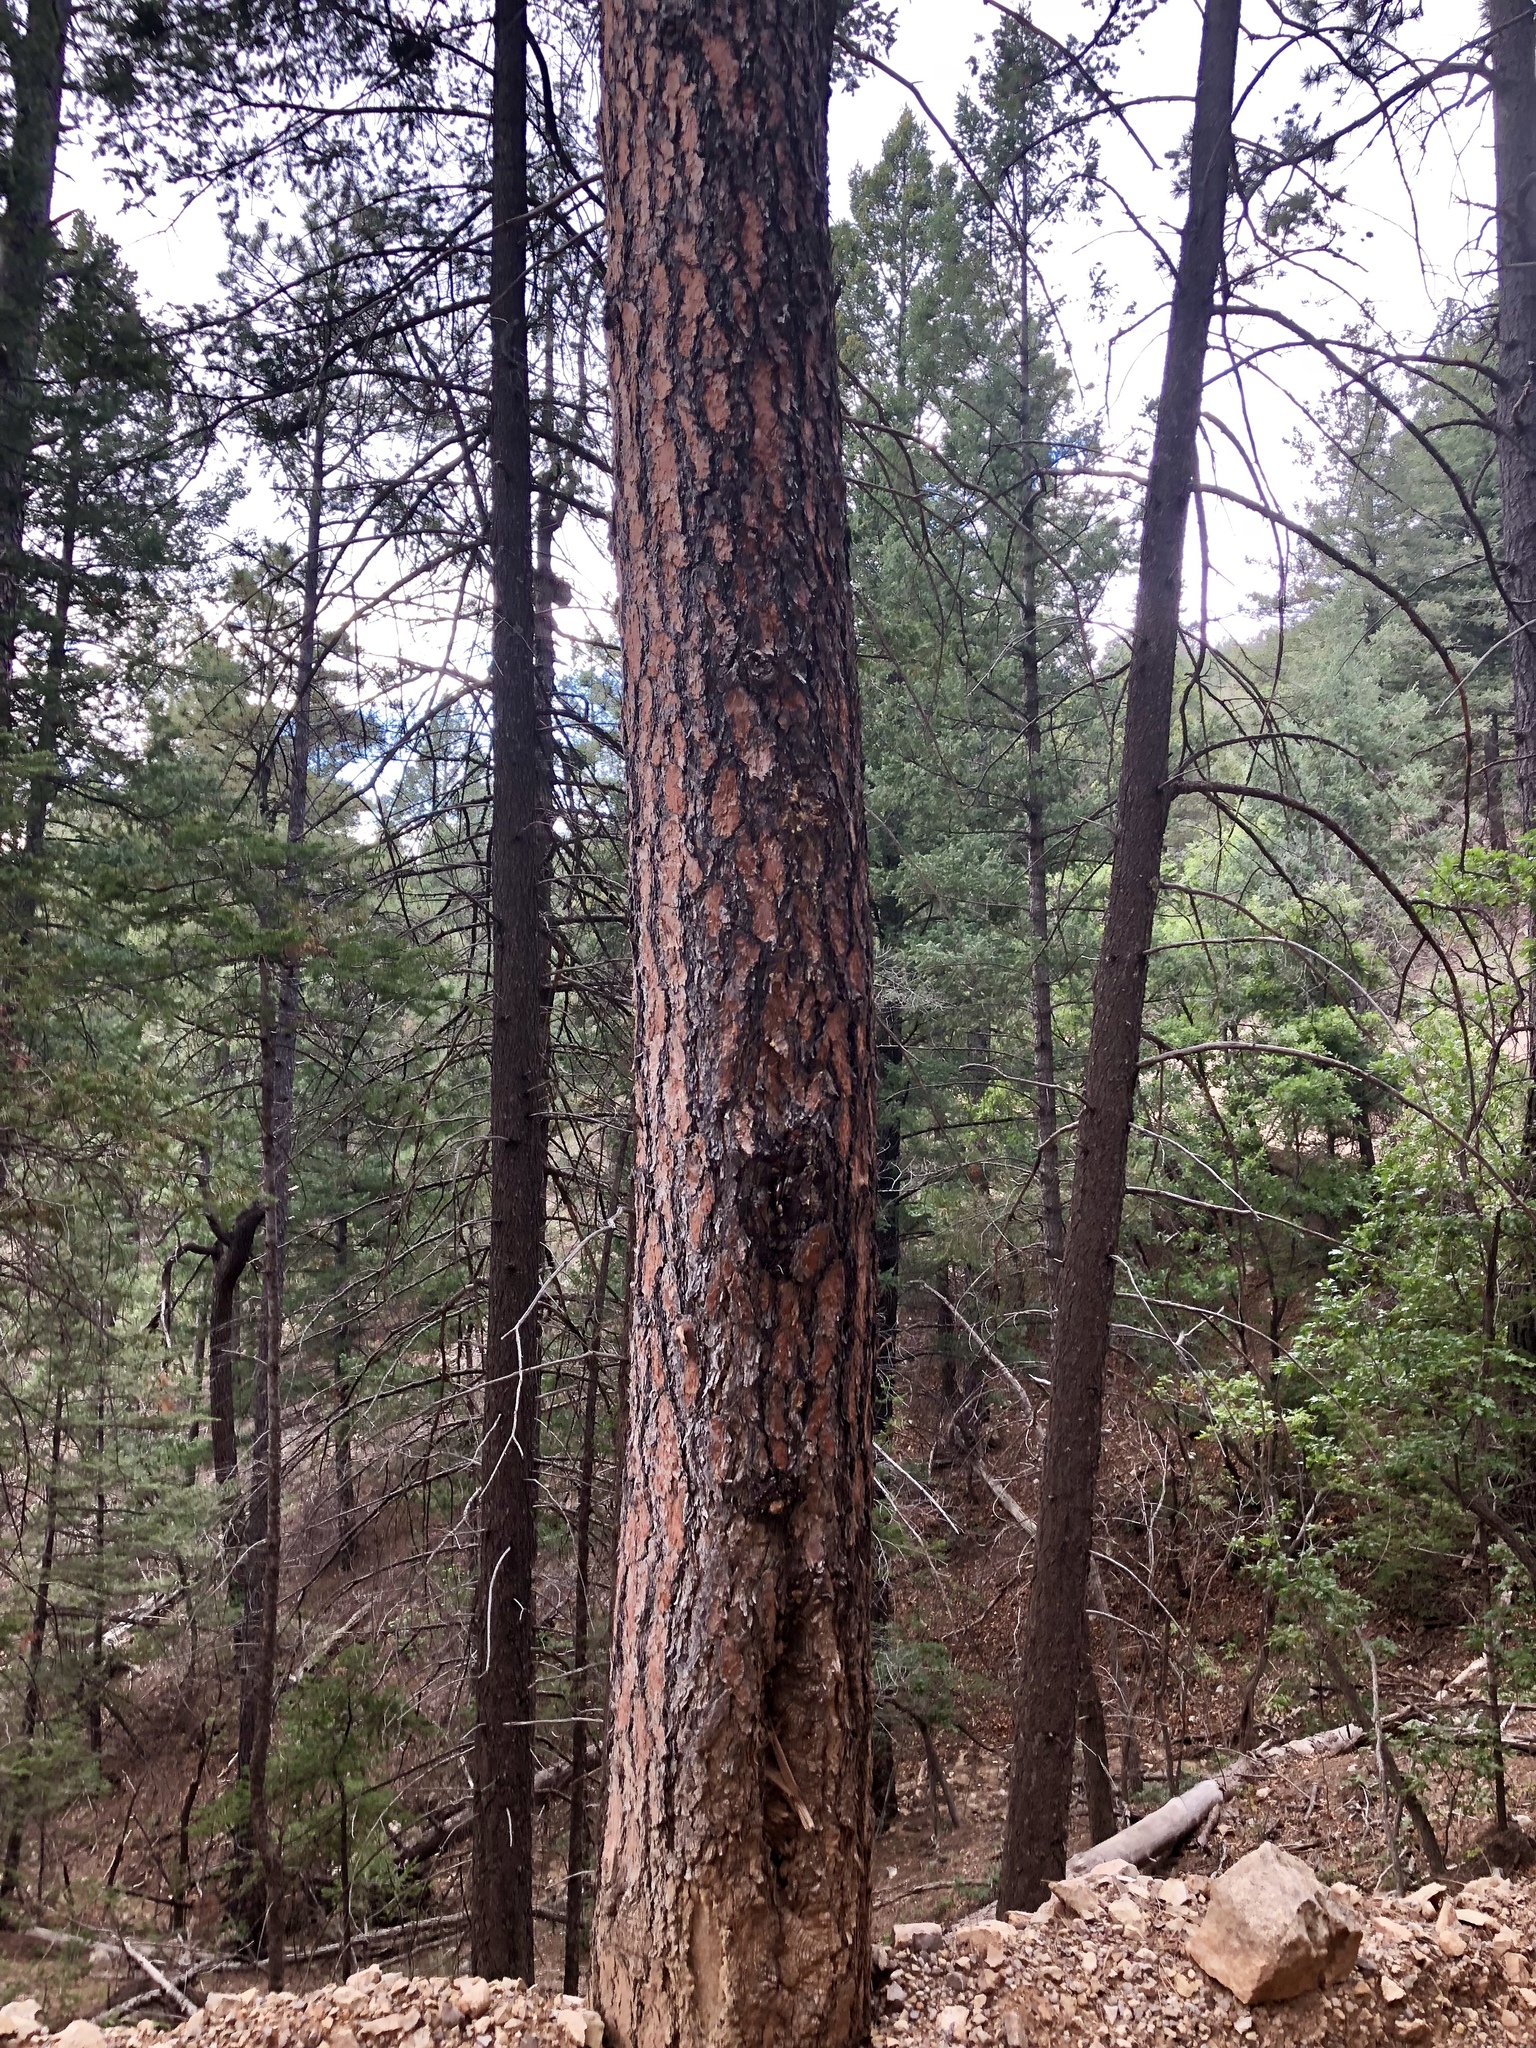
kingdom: Plantae
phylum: Tracheophyta
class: Pinopsida
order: Pinales
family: Pinaceae
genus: Pinus
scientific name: Pinus ponderosa
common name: Western yellow-pine
